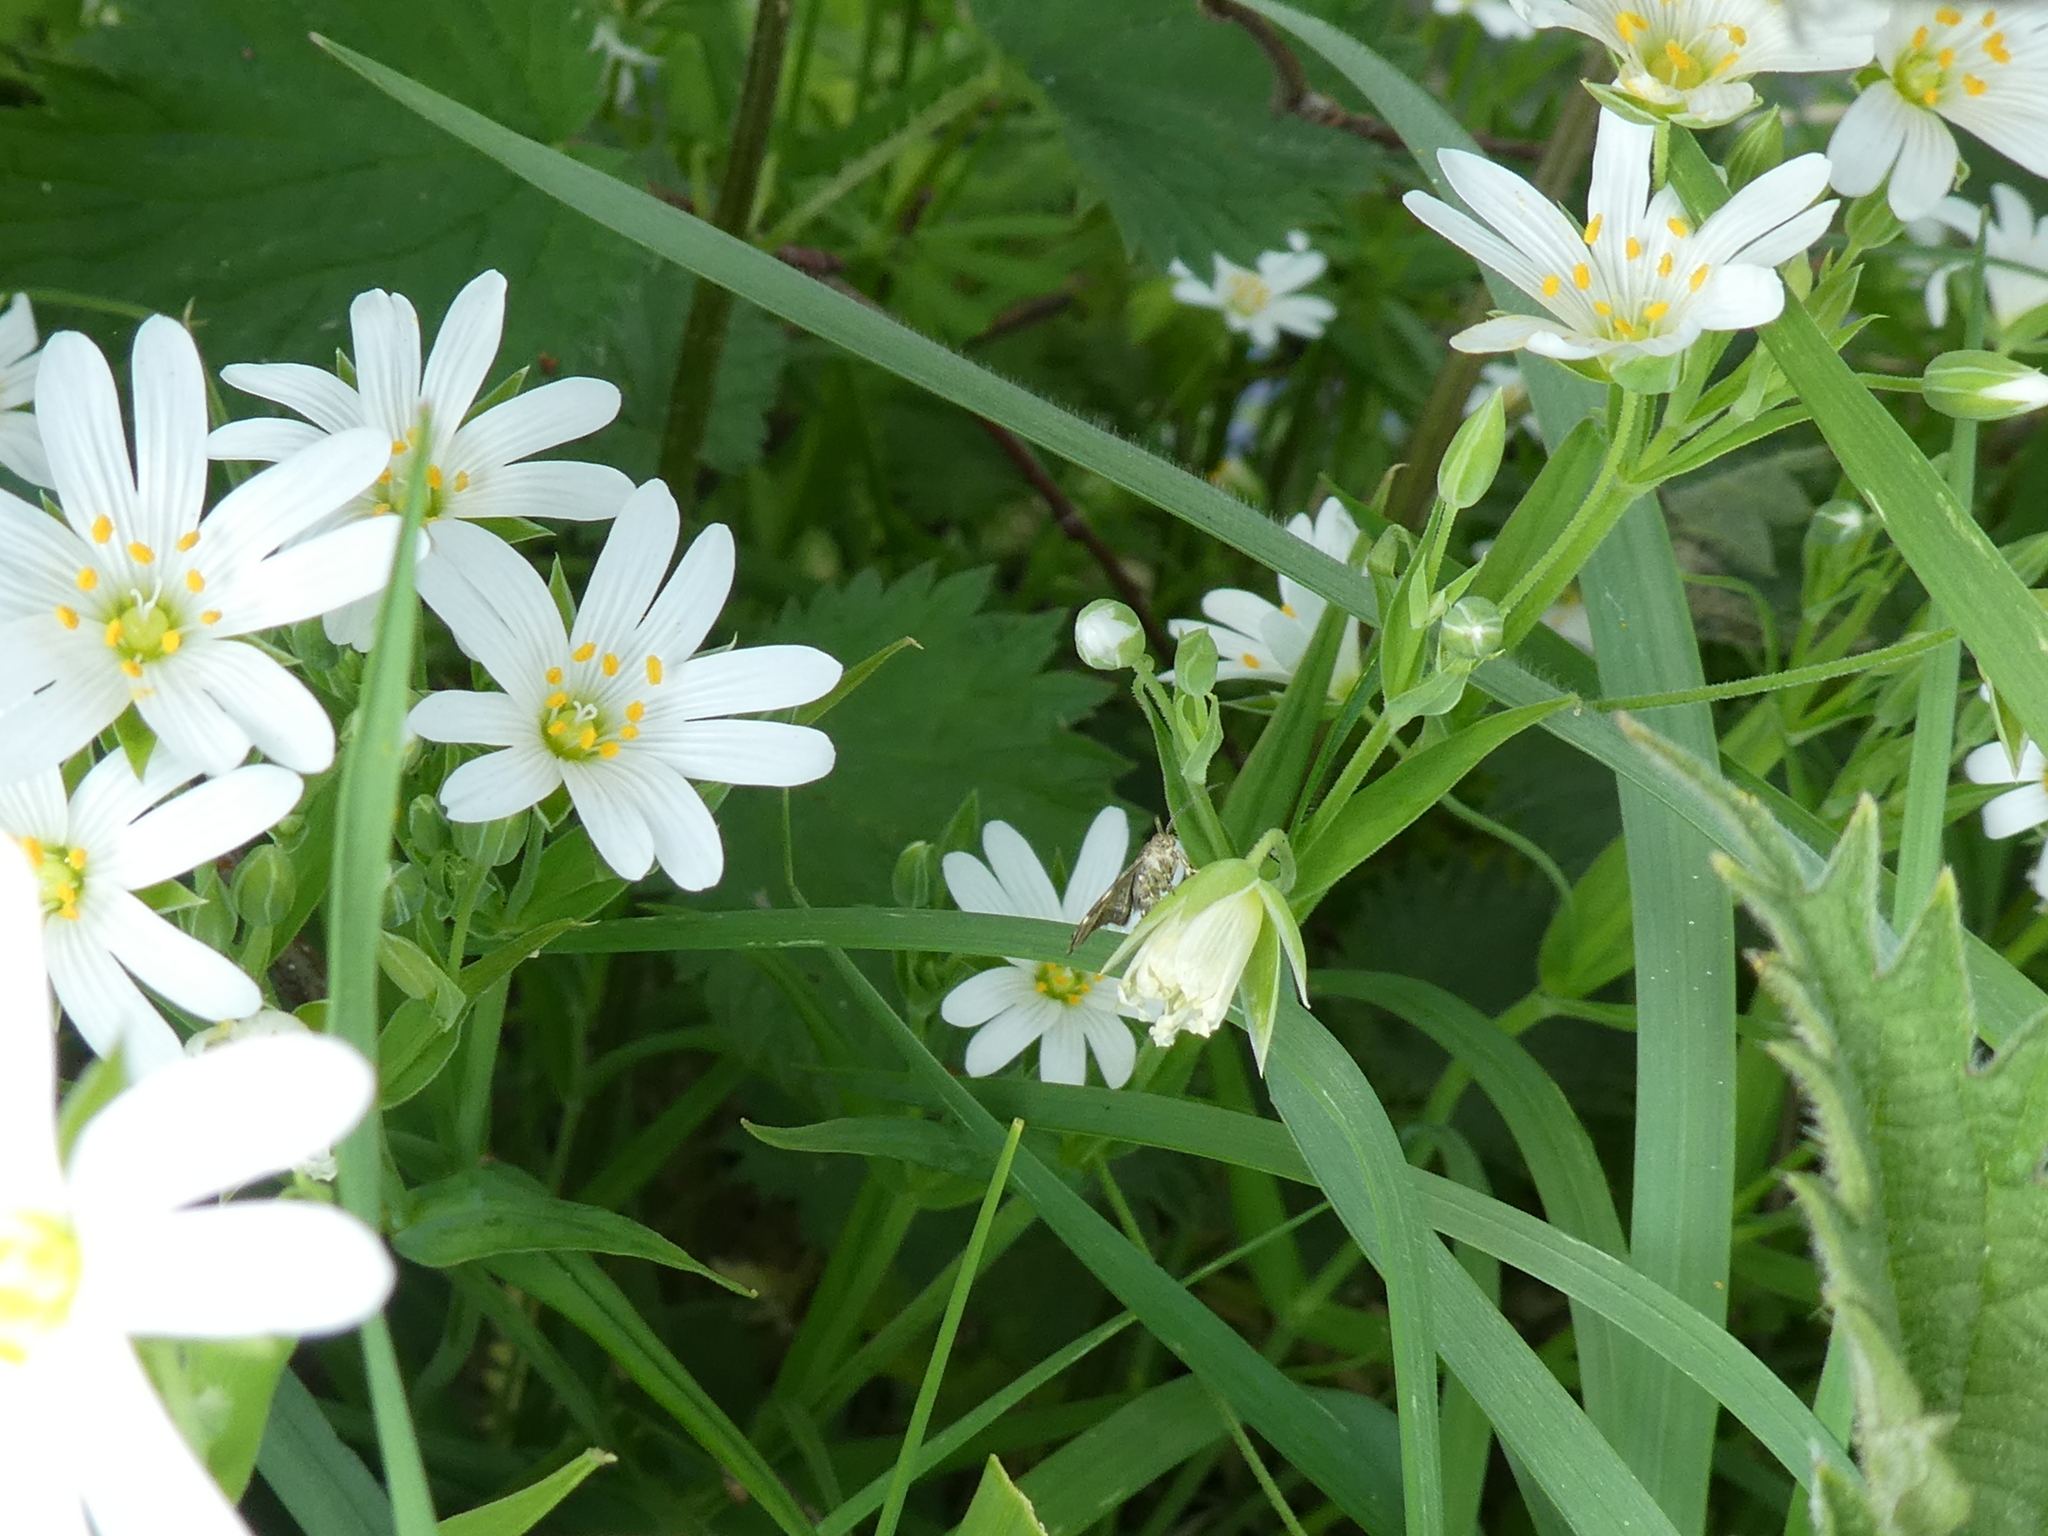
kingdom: Plantae
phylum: Tracheophyta
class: Magnoliopsida
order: Caryophyllales
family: Caryophyllaceae
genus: Rabelera
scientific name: Rabelera holostea
